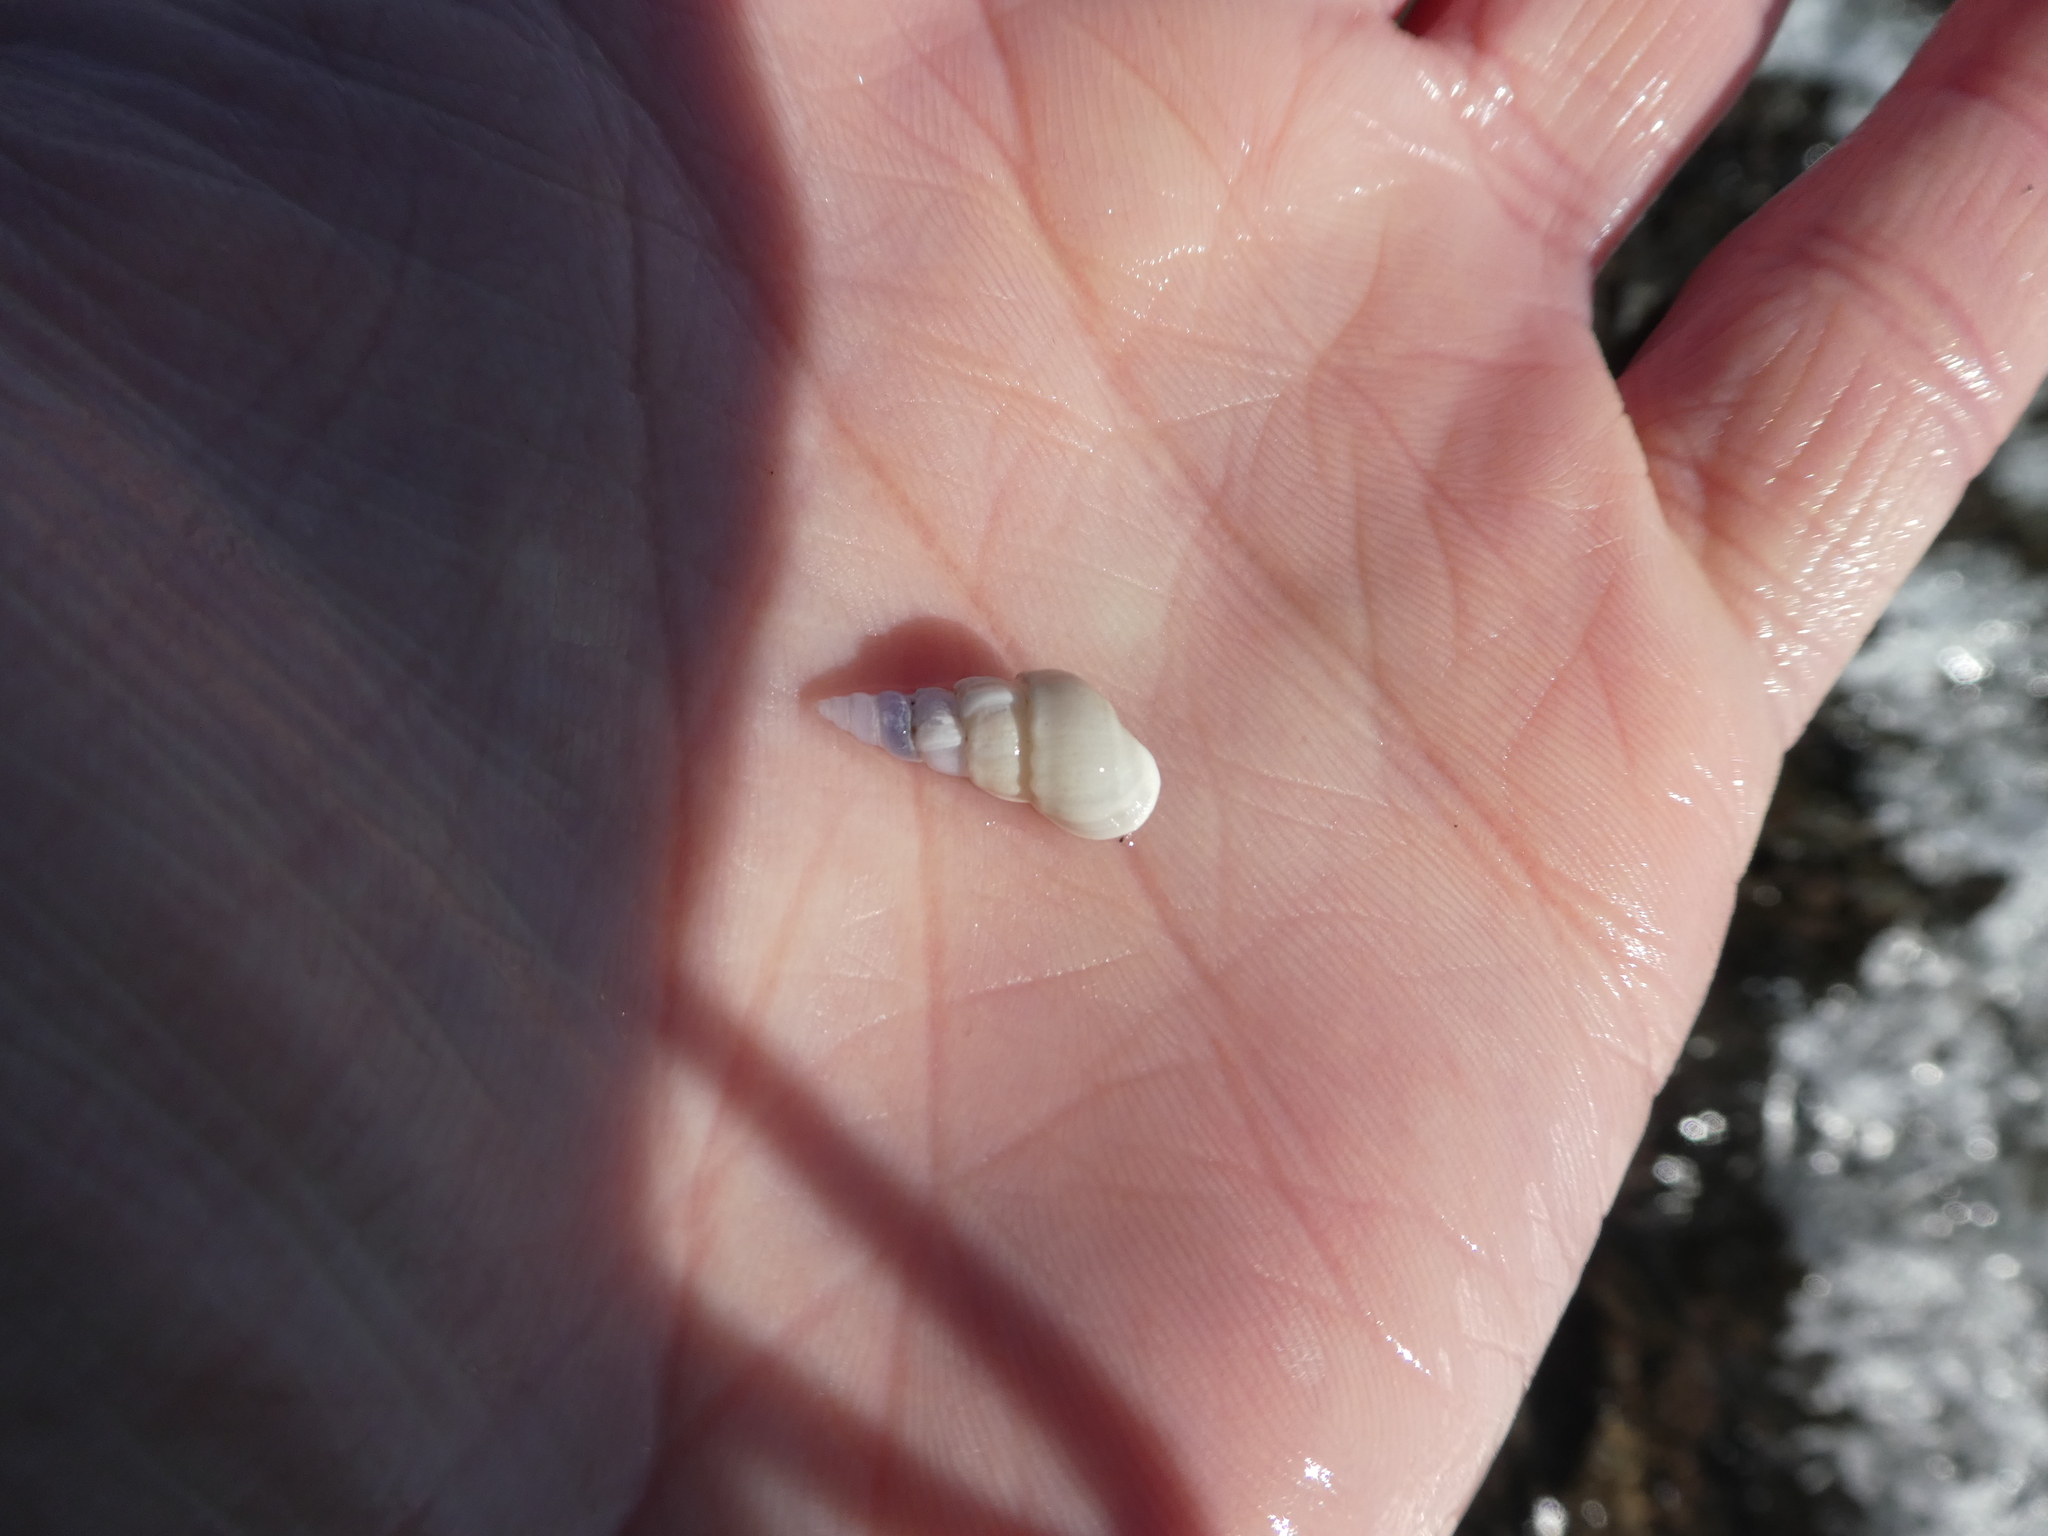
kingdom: Animalia
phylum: Mollusca
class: Gastropoda
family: Epitoniidae
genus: Opalia
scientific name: Opalia funiculata
